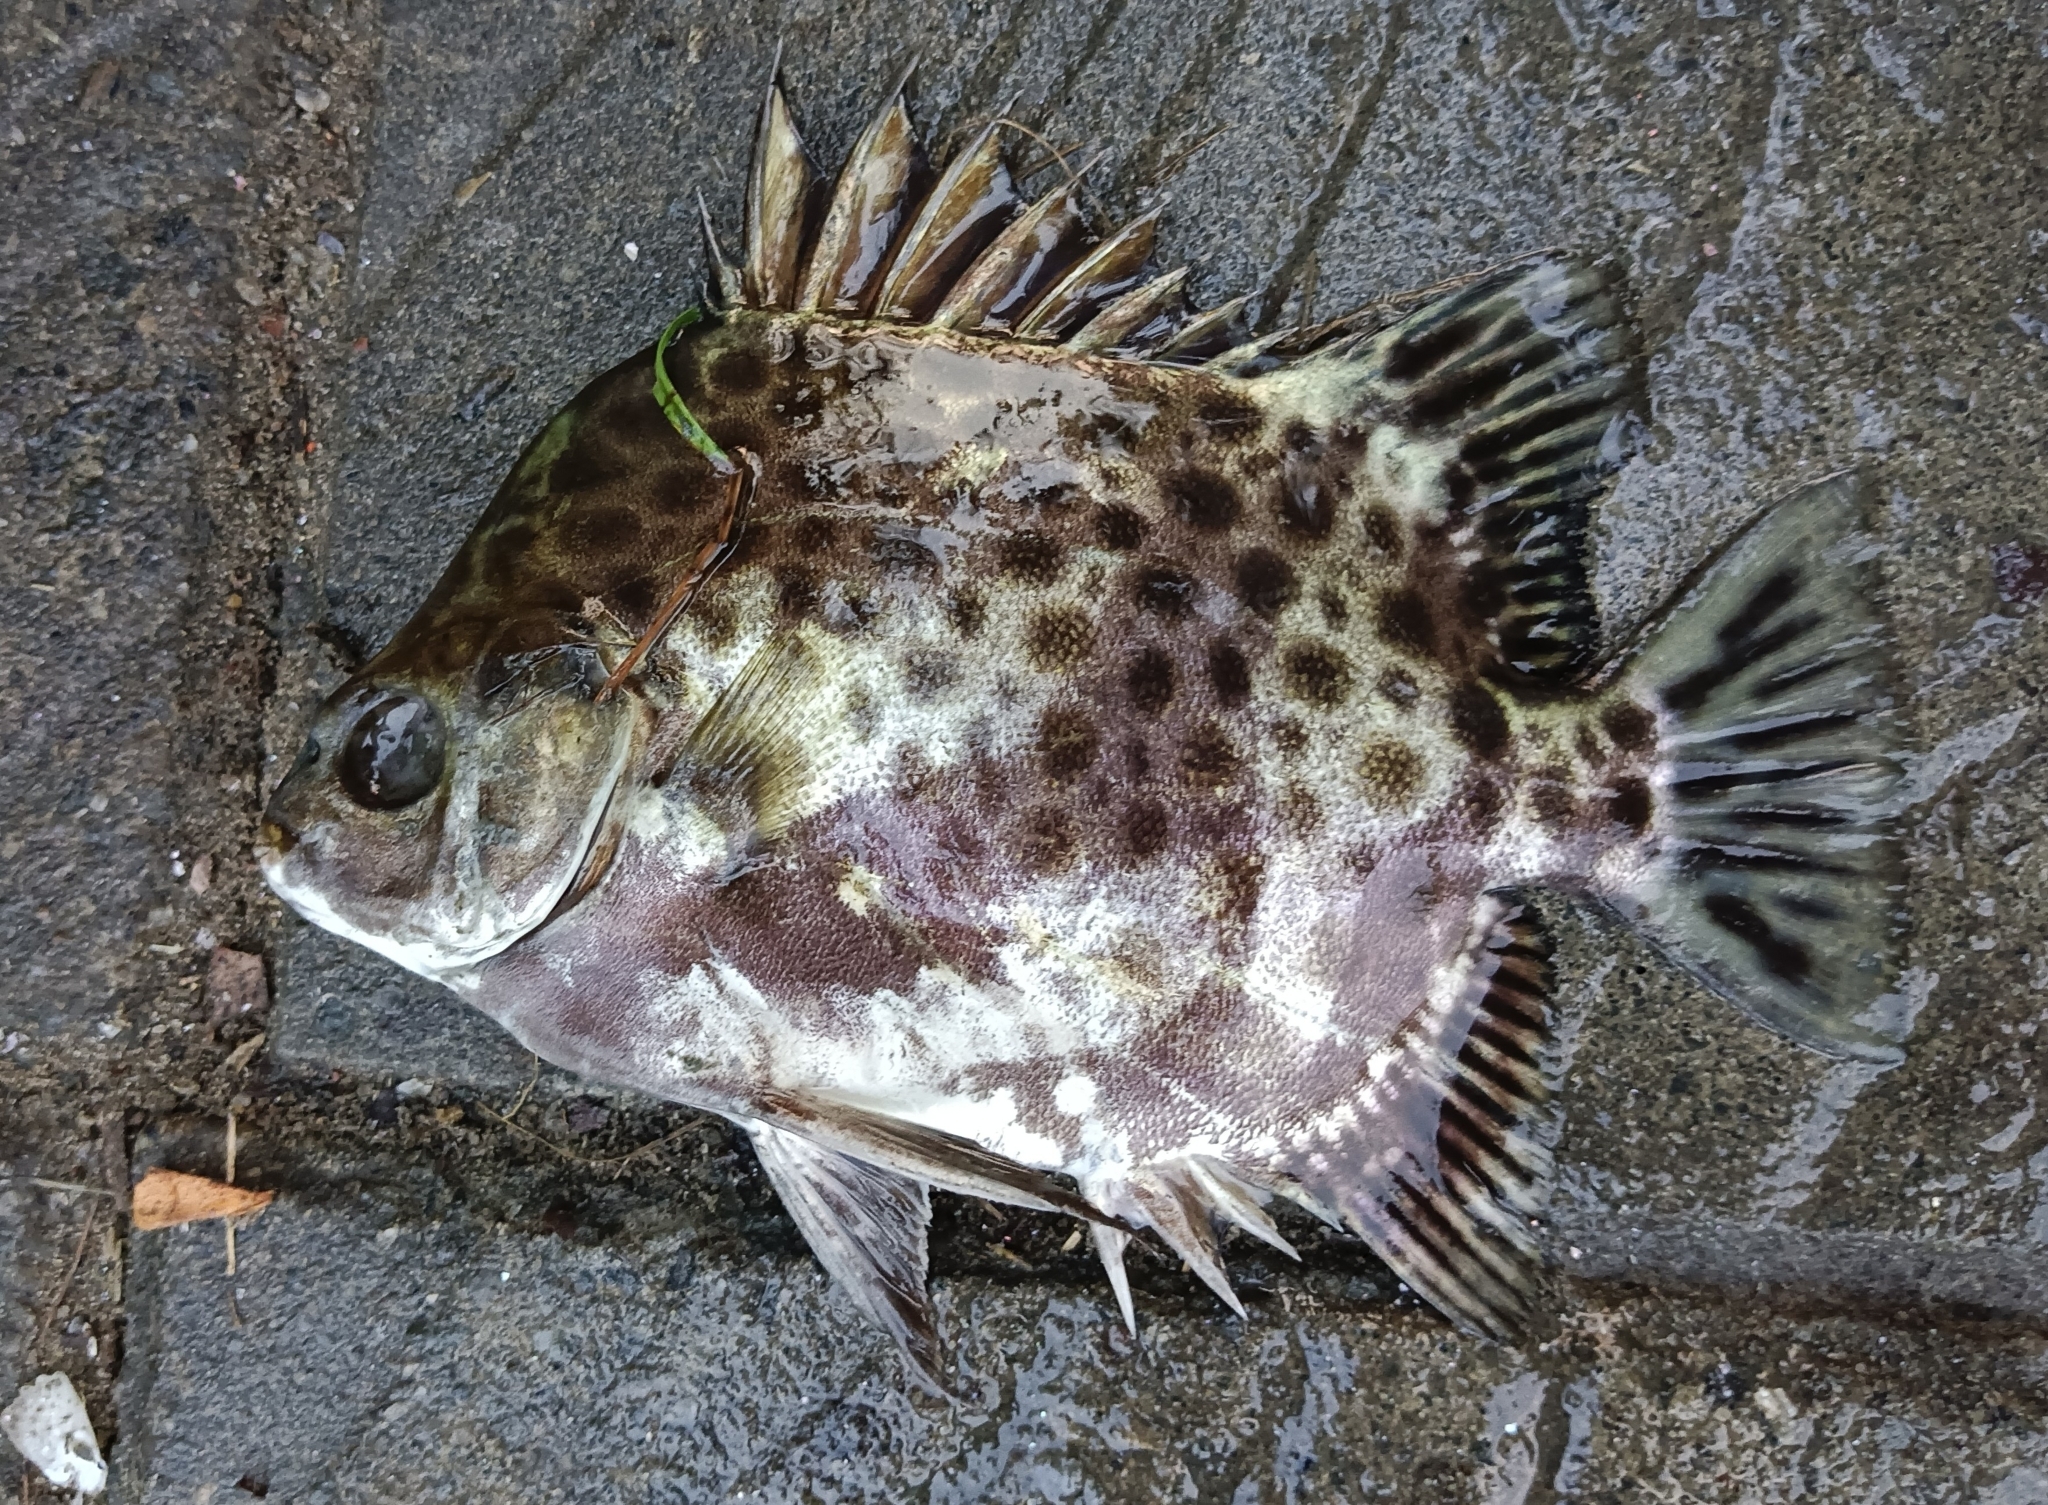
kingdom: Animalia
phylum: Chordata
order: Perciformes
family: Scatophagidae
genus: Scatophagus
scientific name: Scatophagus argus
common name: Spotted scat
